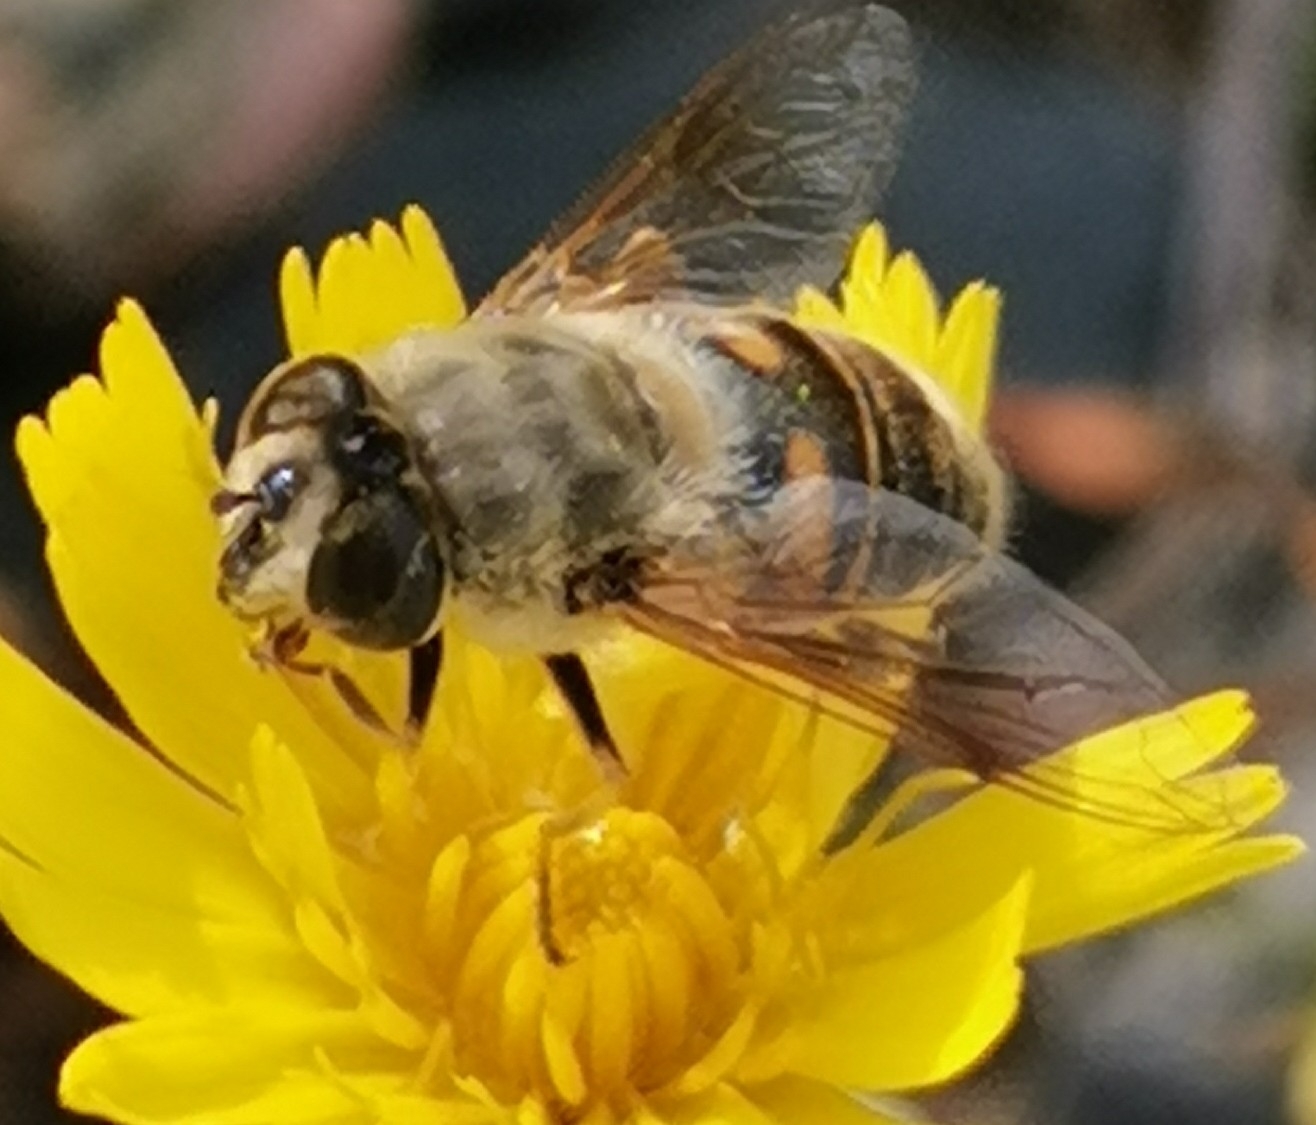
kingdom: Animalia
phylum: Arthropoda
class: Insecta
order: Diptera
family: Syrphidae
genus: Eristalis
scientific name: Eristalis tenax
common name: Drone fly
